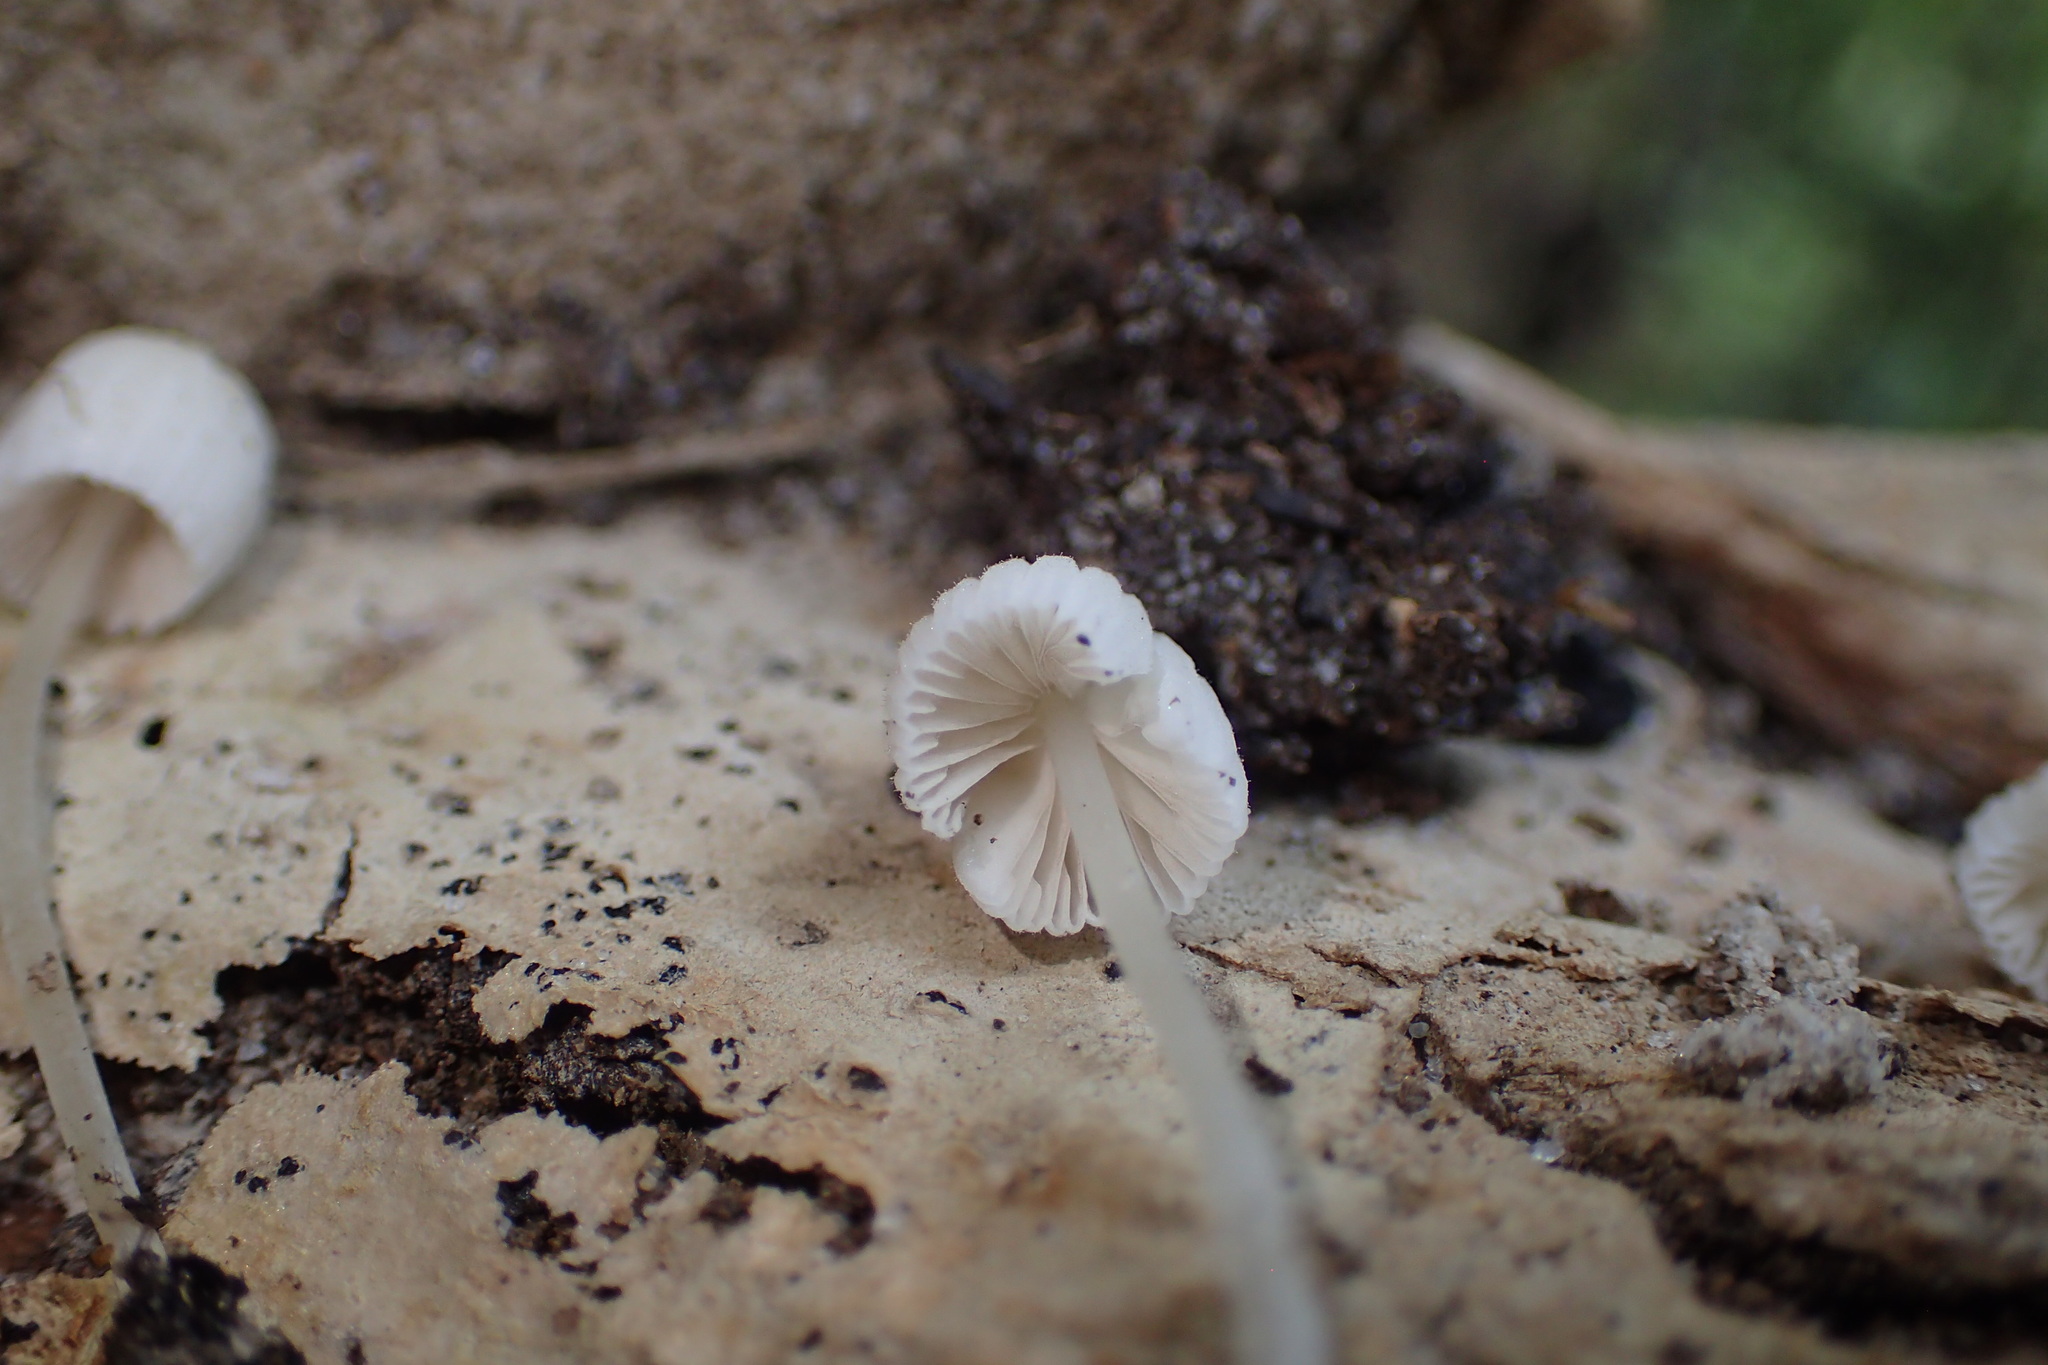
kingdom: Fungi
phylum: Basidiomycota
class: Agaricomycetes
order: Agaricales
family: Psathyrellaceae
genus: Coprinellus
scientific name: Coprinellus disseminatus
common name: Fairies' bonnets
